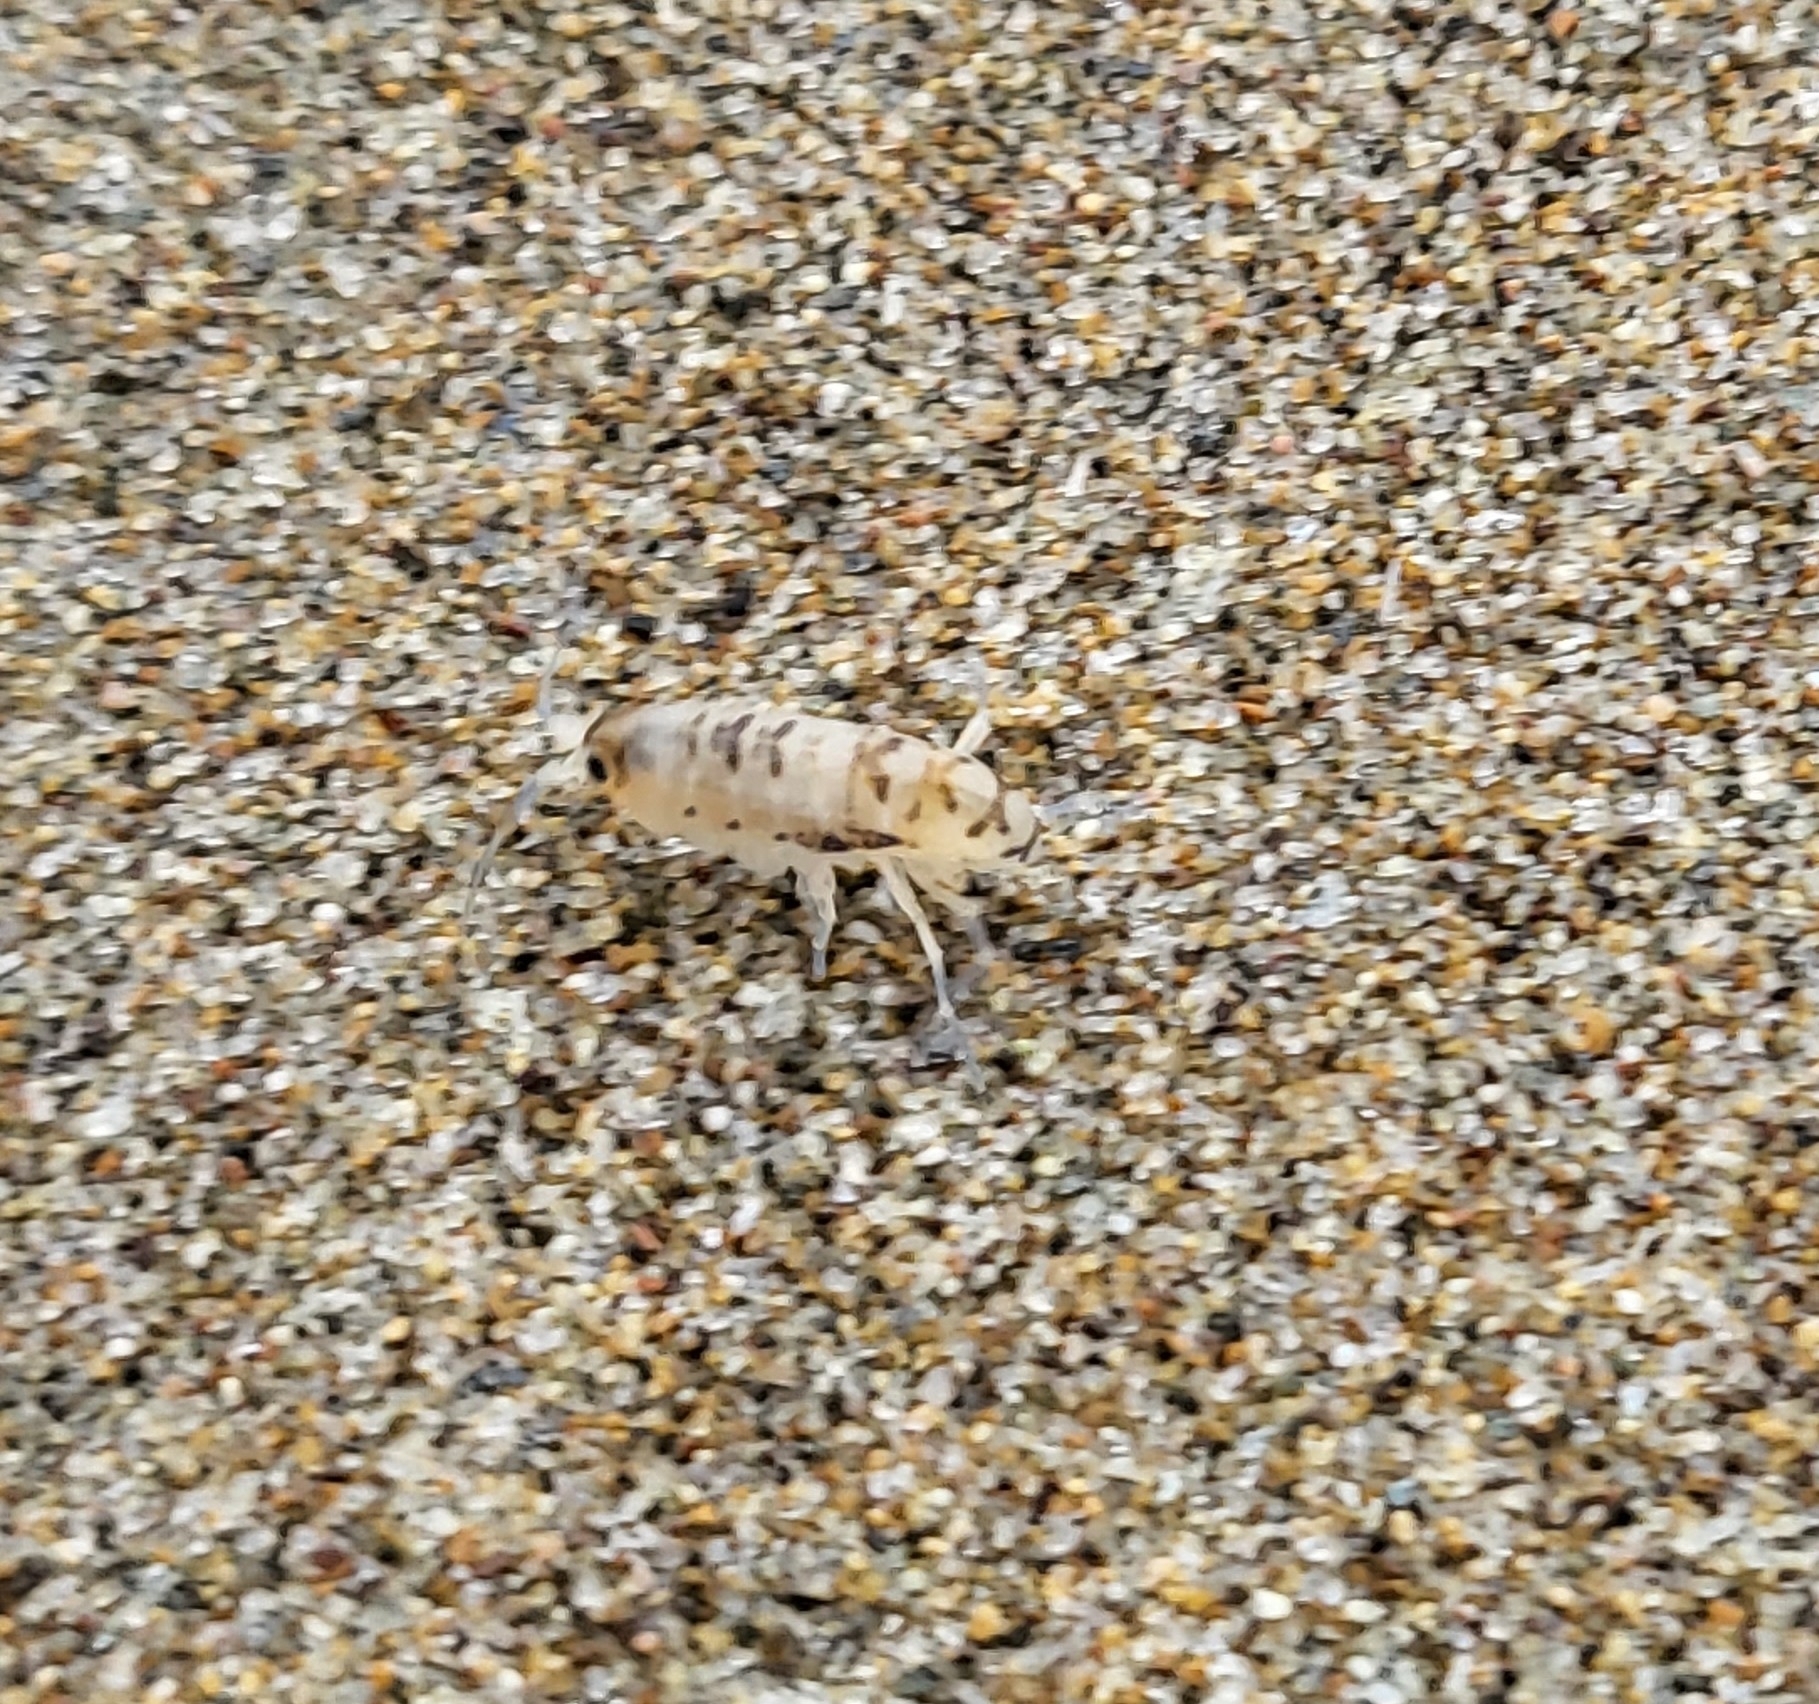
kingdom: Animalia
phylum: Arthropoda
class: Malacostraca
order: Amphipoda
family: Talitridae
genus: Megalorchestia
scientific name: Megalorchestia minor
